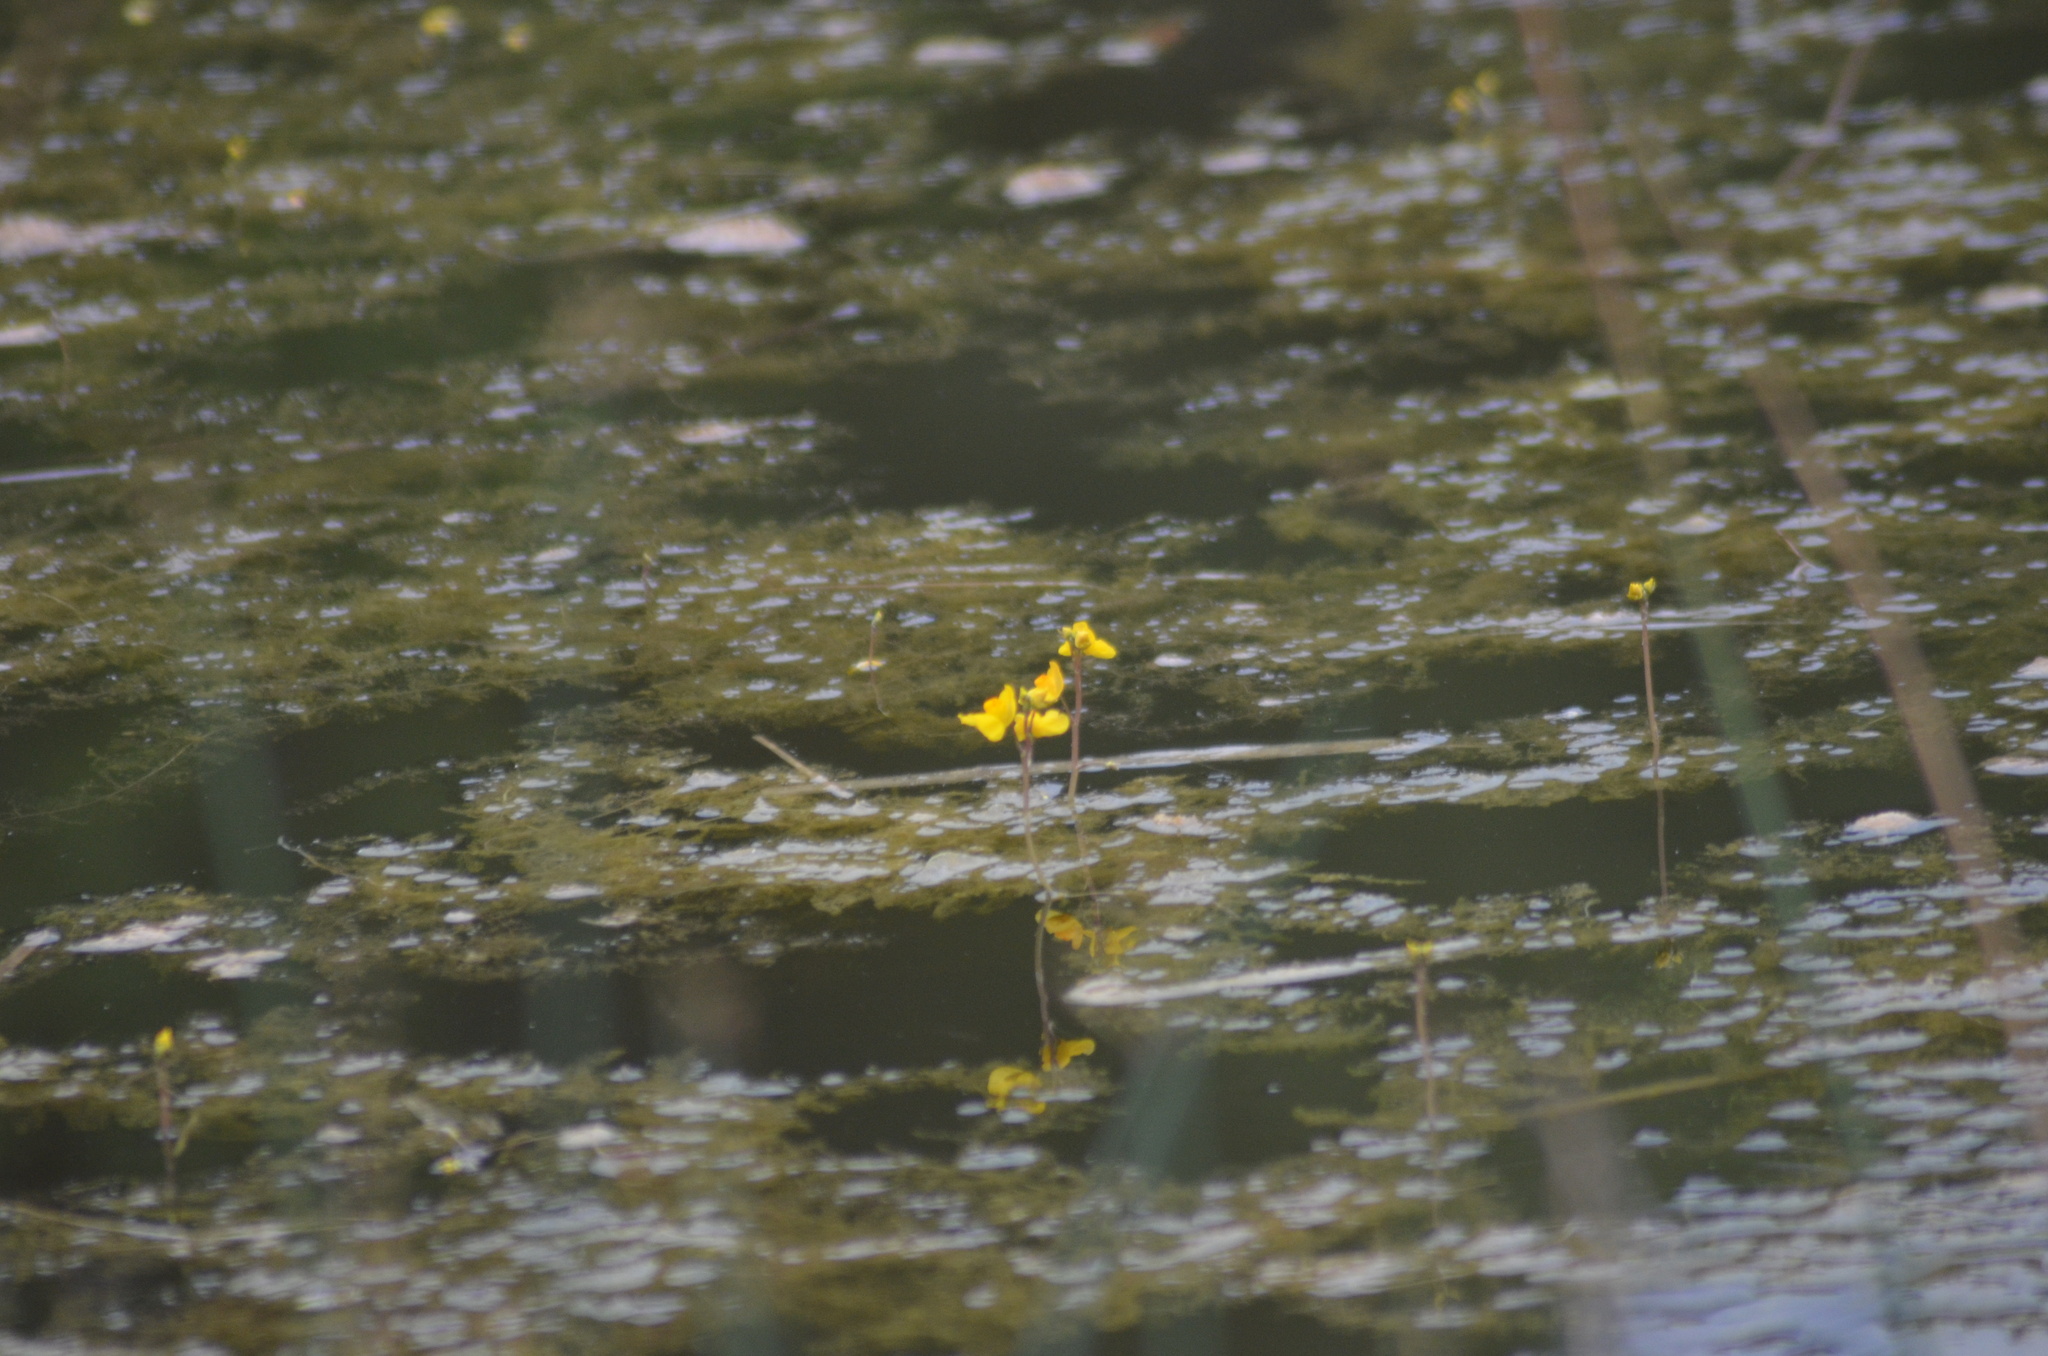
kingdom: Plantae
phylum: Tracheophyta
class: Magnoliopsida
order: Lamiales
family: Lentibulariaceae
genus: Utricularia
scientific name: Utricularia australis
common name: Bladderwort
